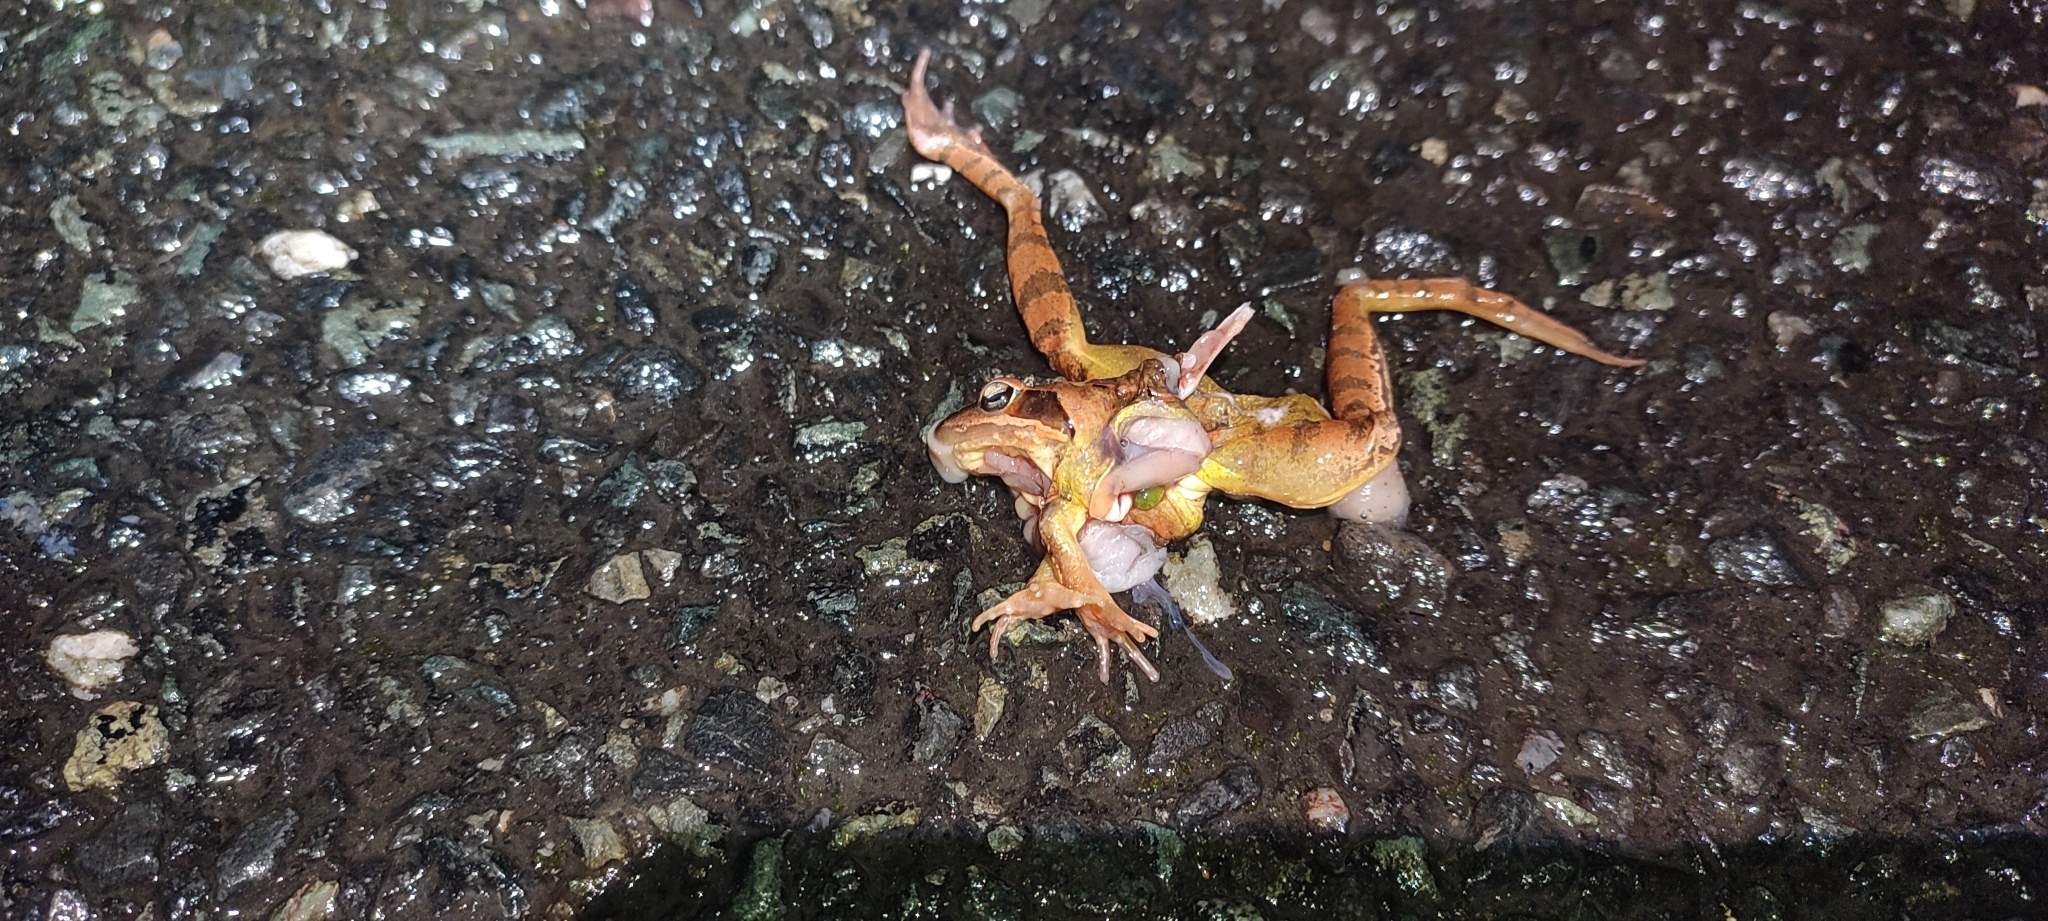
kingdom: Animalia
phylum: Chordata
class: Amphibia
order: Anura
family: Ranidae
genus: Rana
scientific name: Rana dalmatina
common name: Agile frog
